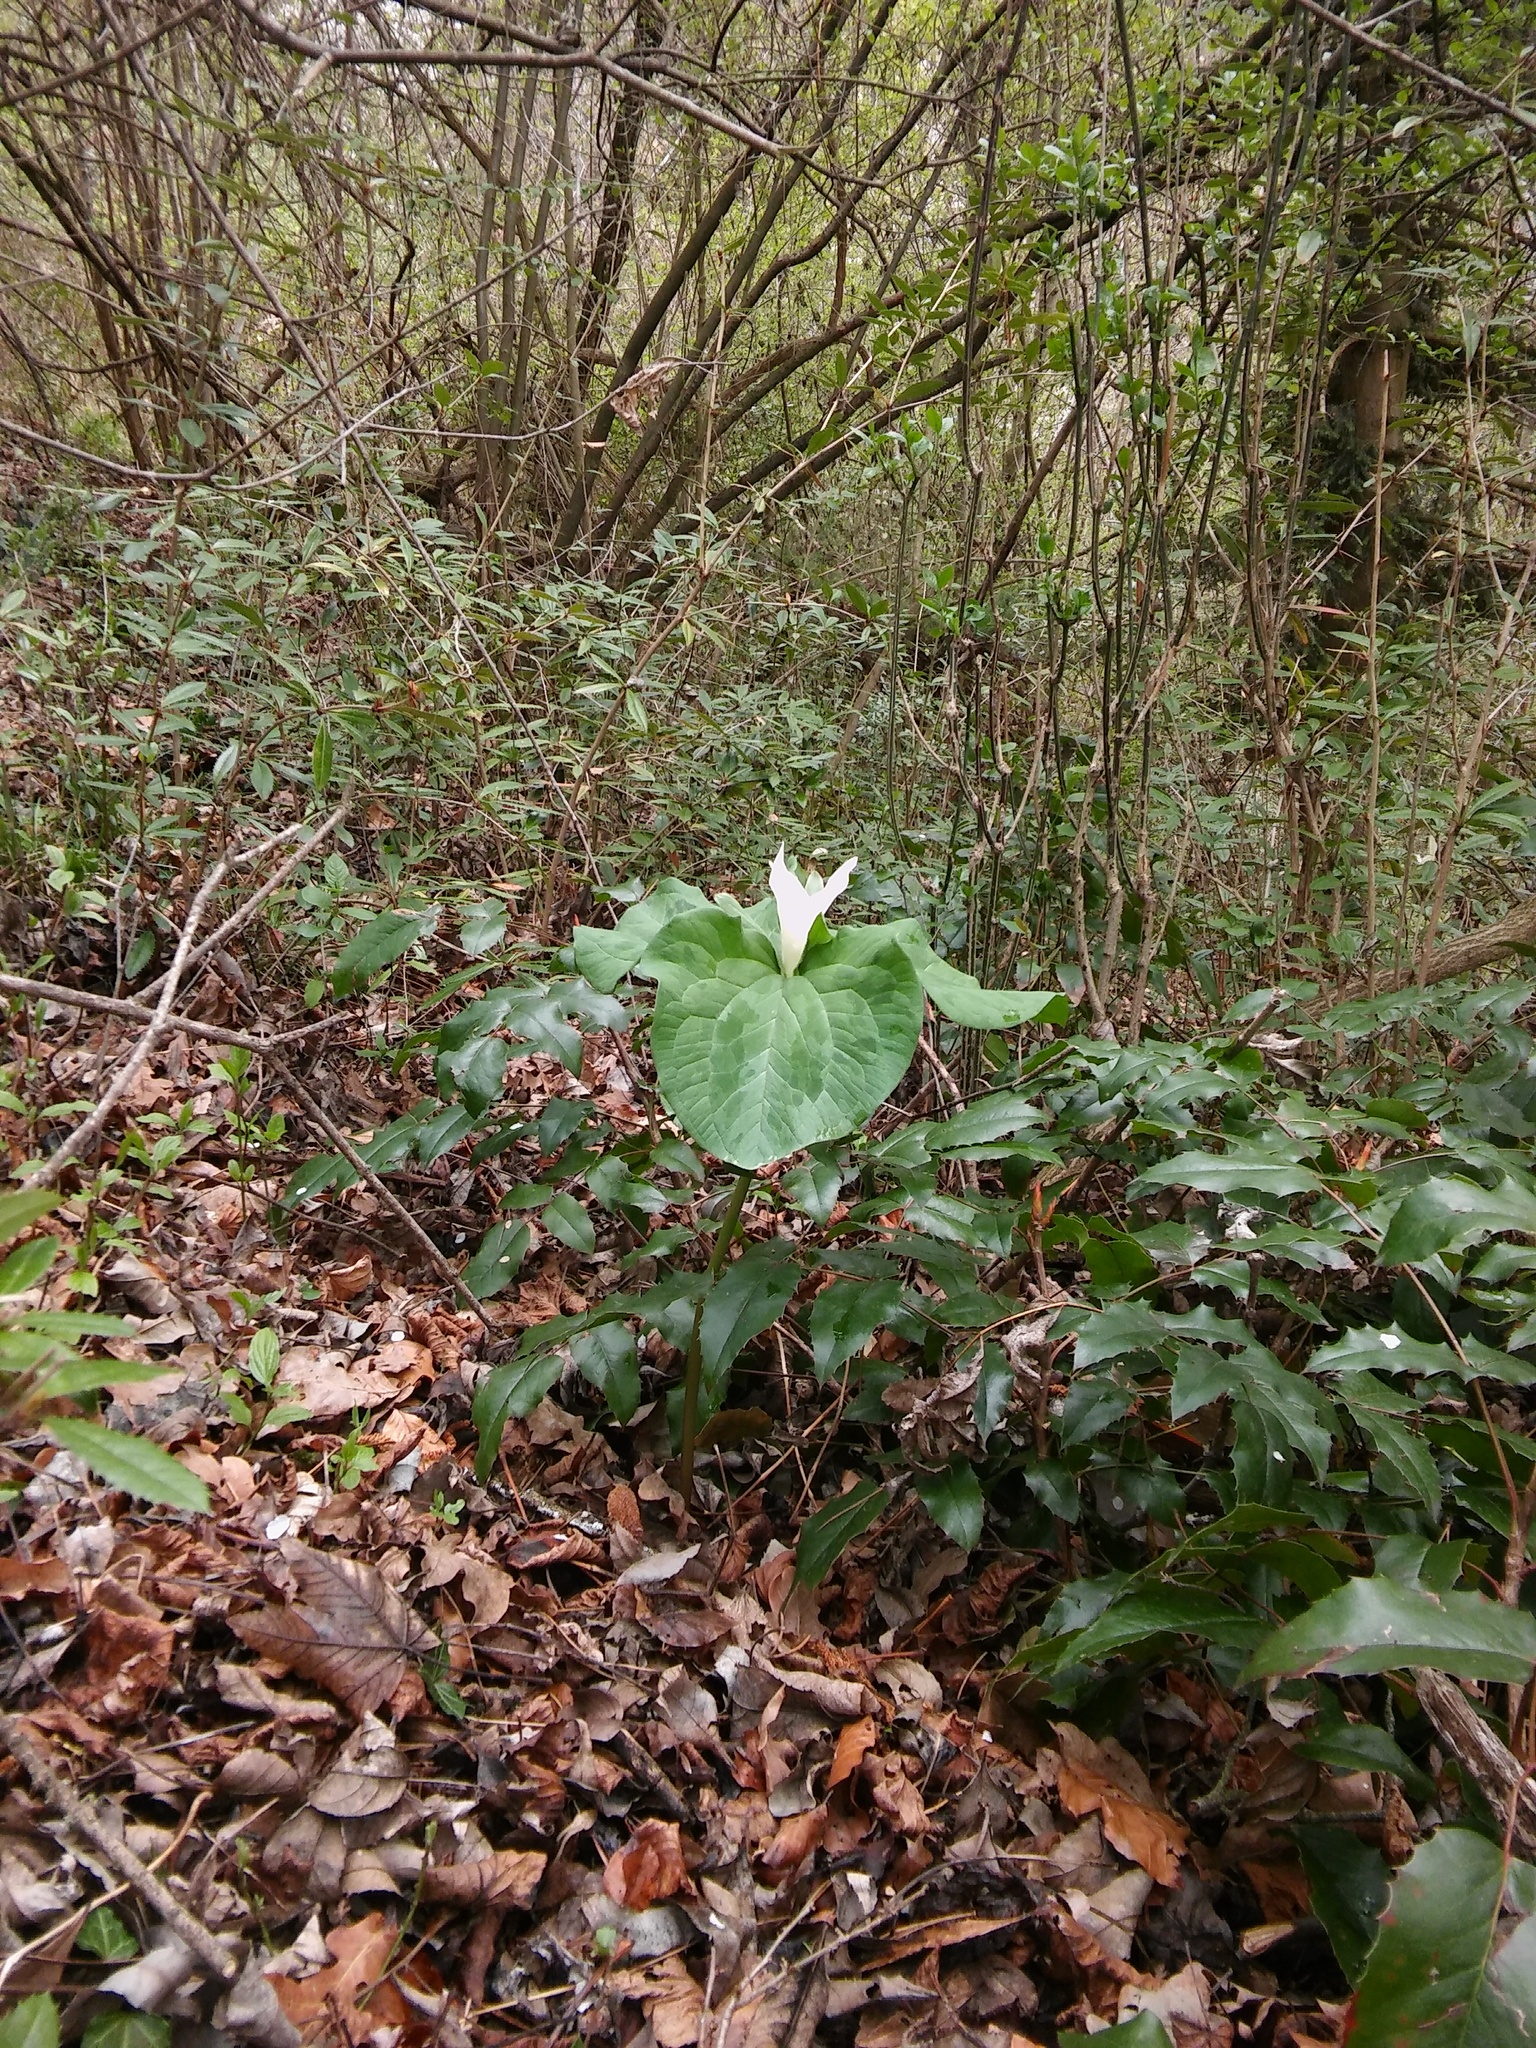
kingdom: Plantae
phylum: Tracheophyta
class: Liliopsida
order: Liliales
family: Melanthiaceae
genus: Trillium
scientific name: Trillium albidum
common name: Freeman's trillium
